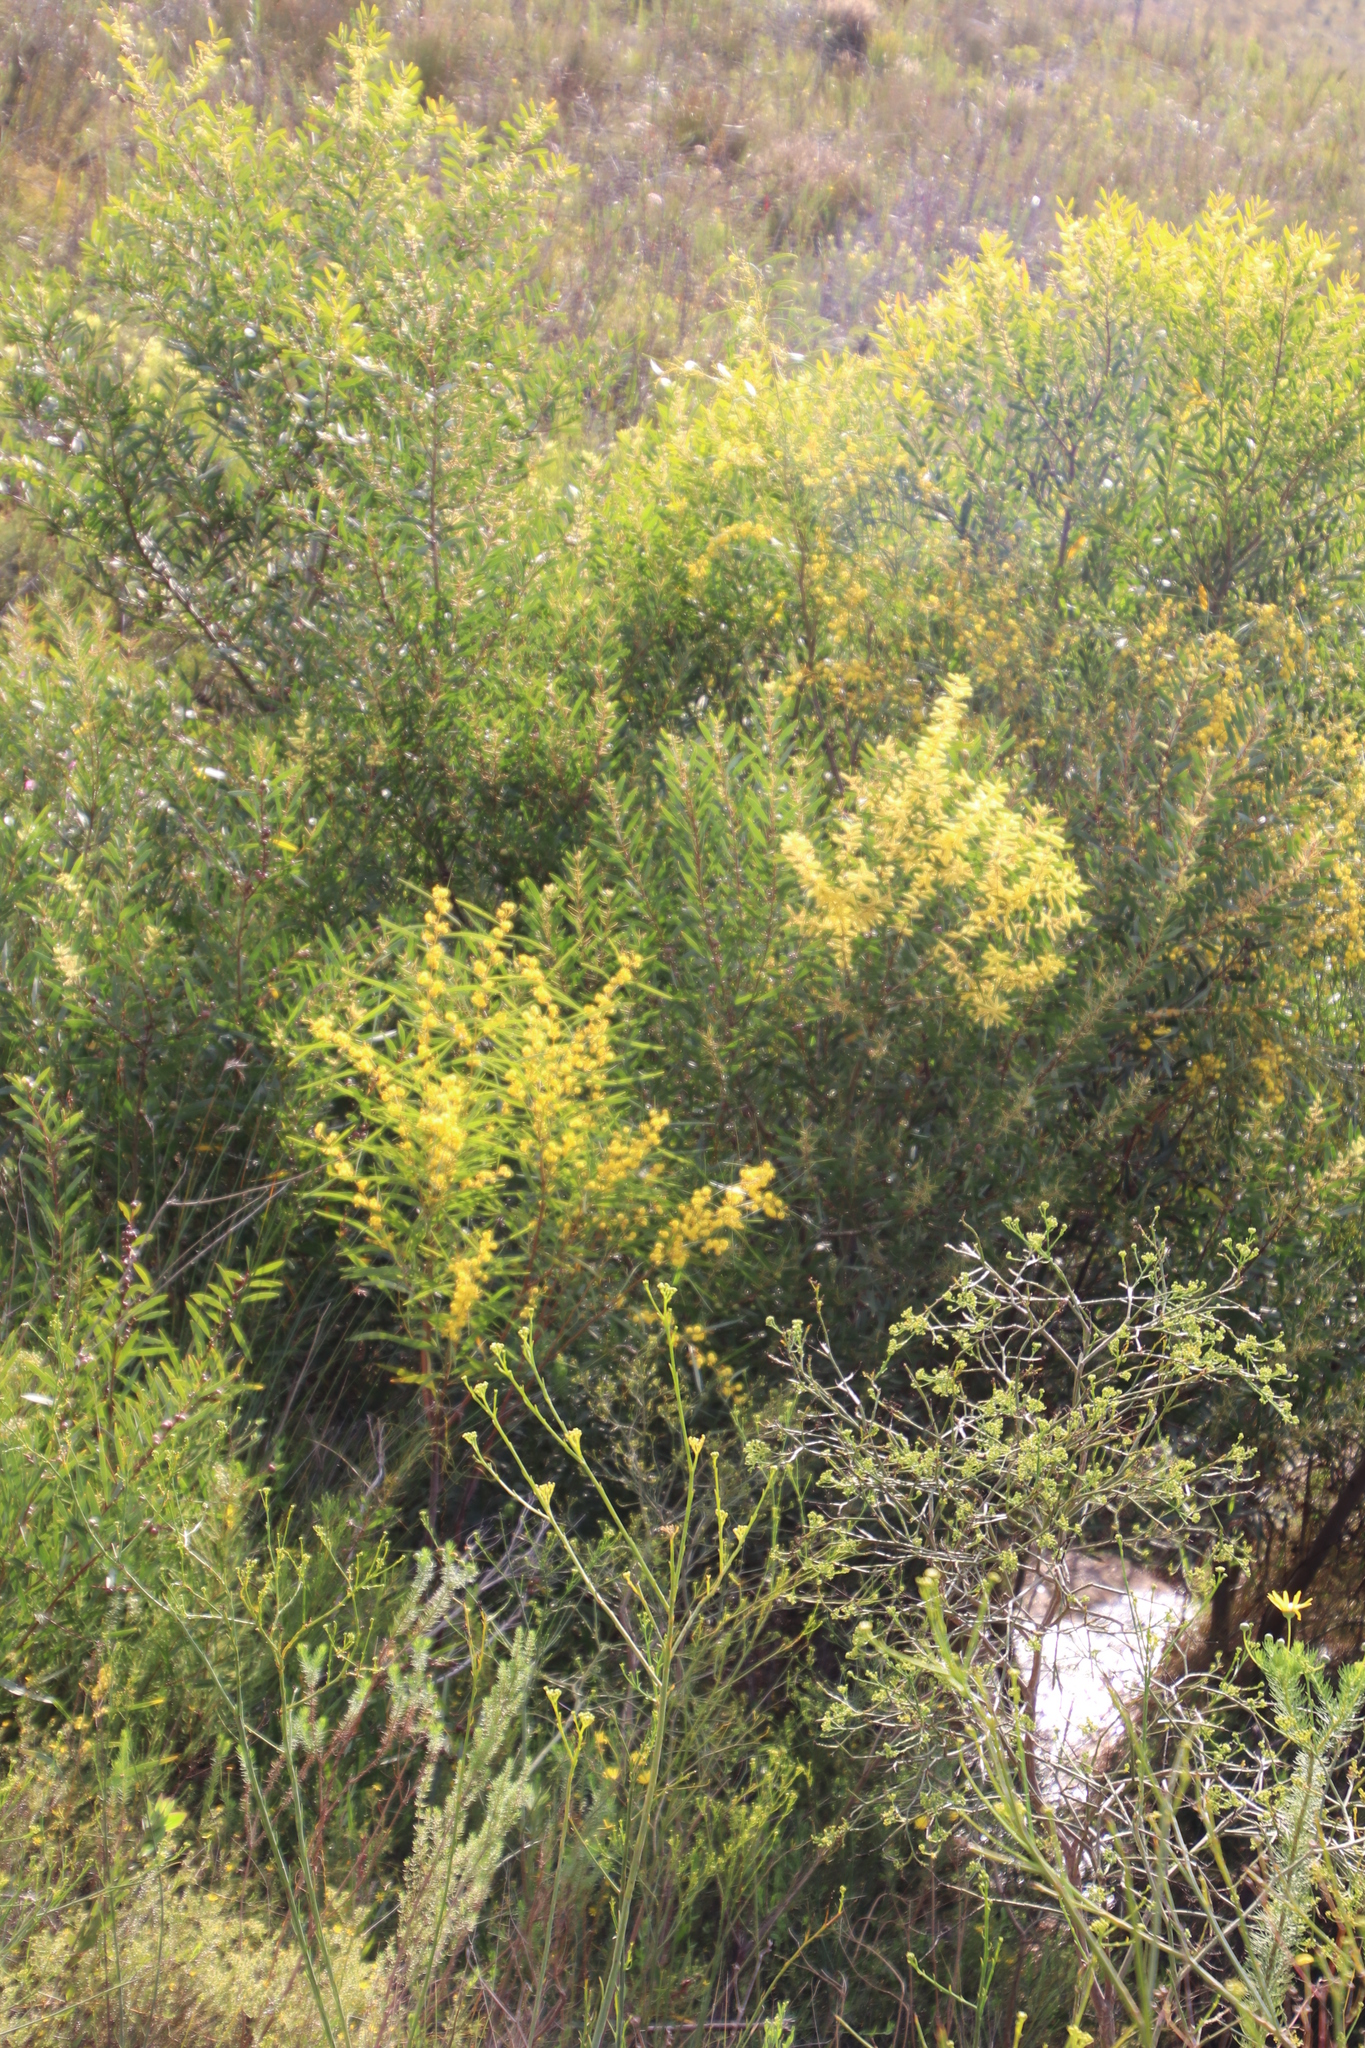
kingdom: Plantae
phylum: Tracheophyta
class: Magnoliopsida
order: Fabales
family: Fabaceae
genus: Acacia
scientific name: Acacia longifolia
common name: Sydney golden wattle
